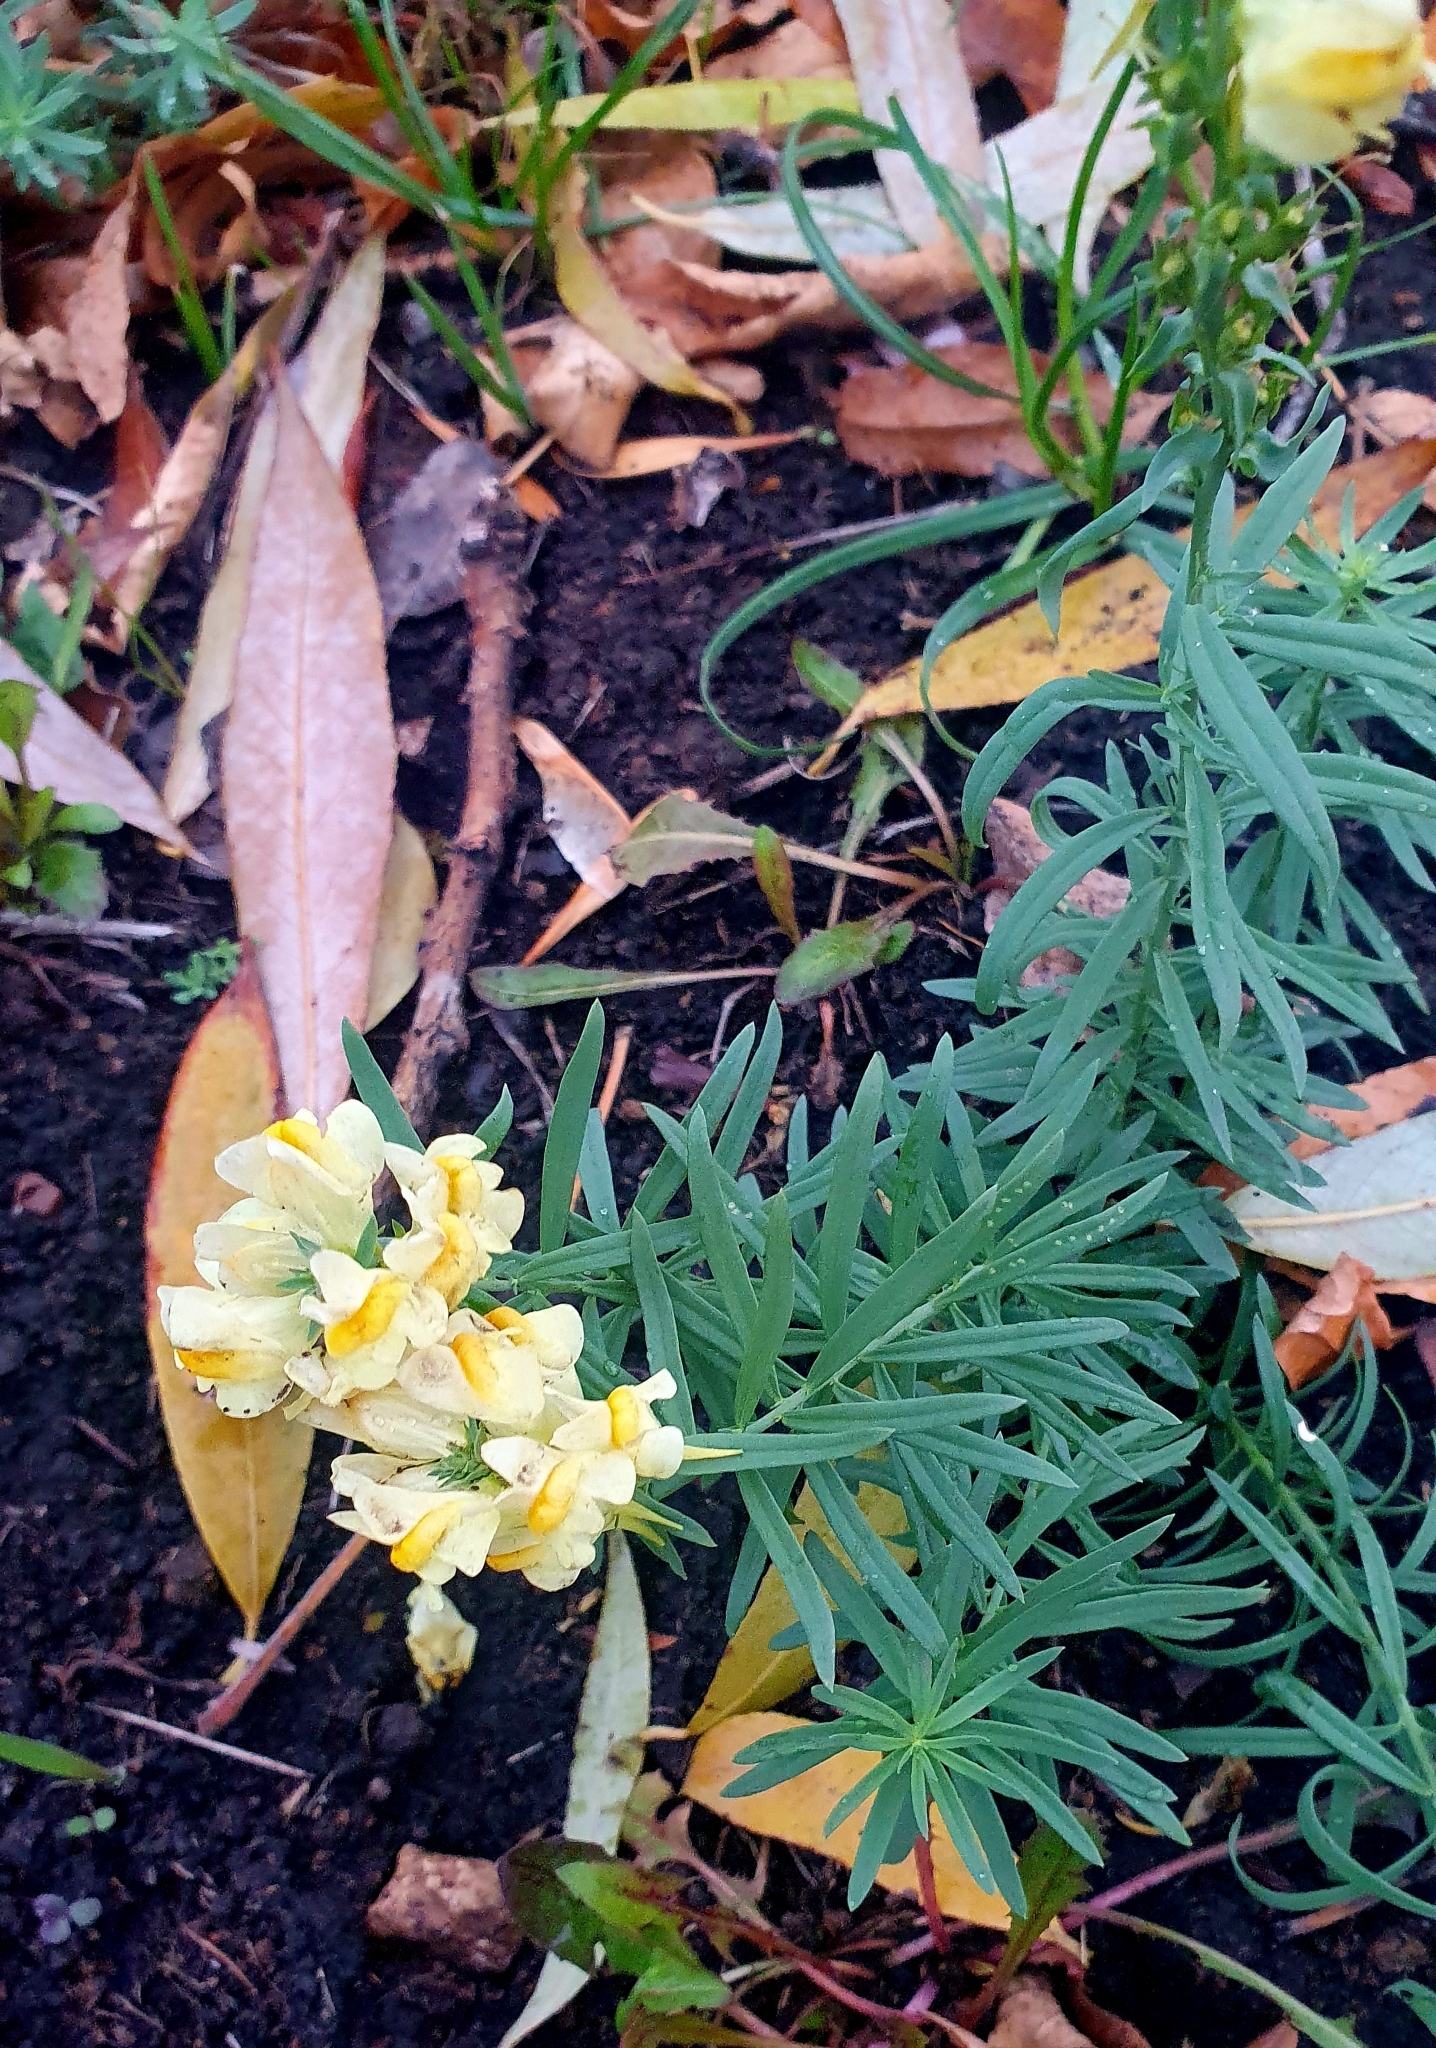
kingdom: Plantae
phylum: Tracheophyta
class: Magnoliopsida
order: Lamiales
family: Plantaginaceae
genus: Linaria
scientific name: Linaria vulgaris
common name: Butter and eggs
